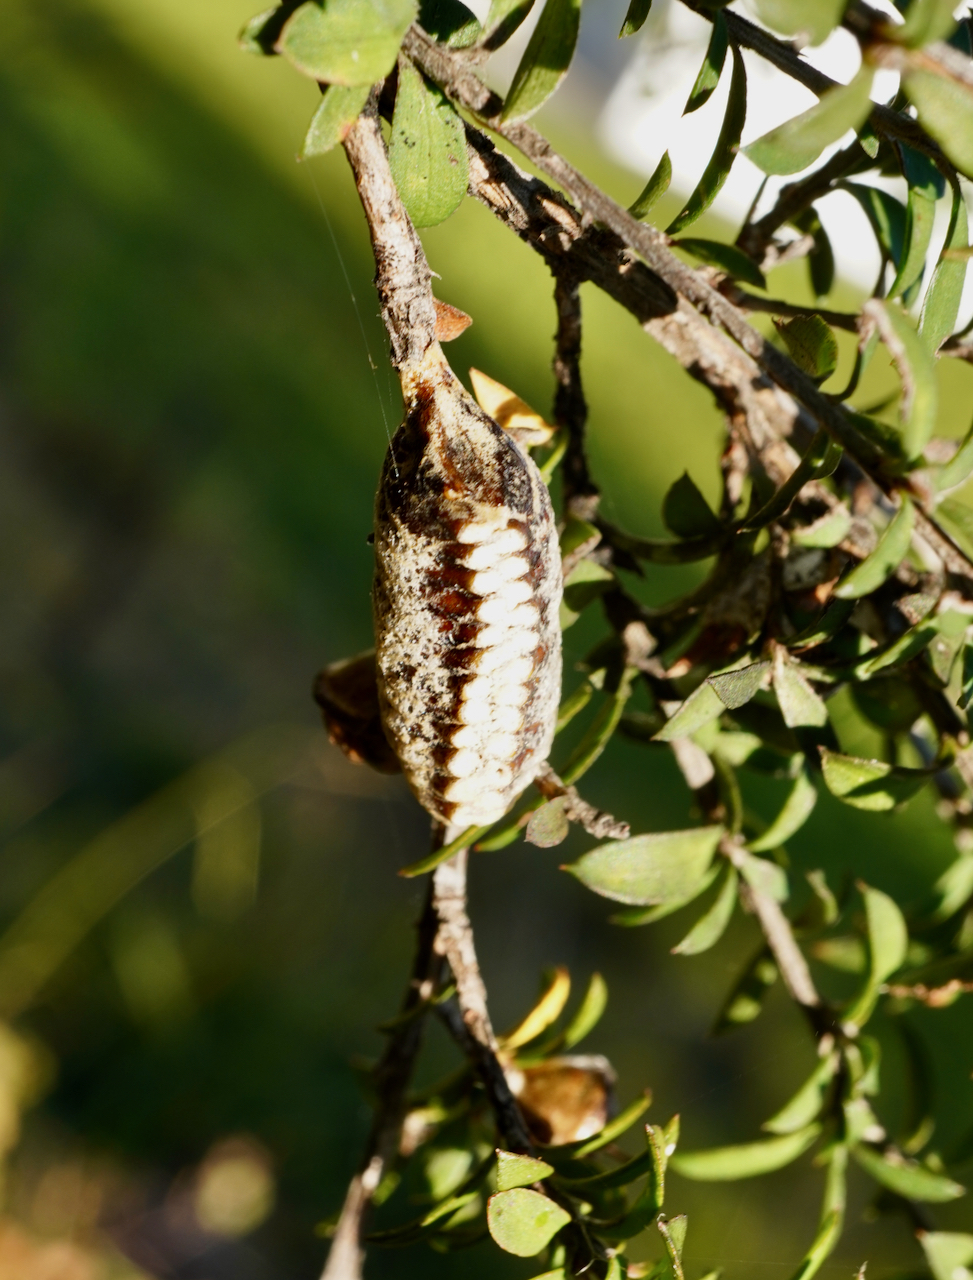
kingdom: Animalia
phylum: Arthropoda
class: Insecta
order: Mantodea
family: Mantidae
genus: Orthodera
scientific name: Orthodera novaezealandiae
